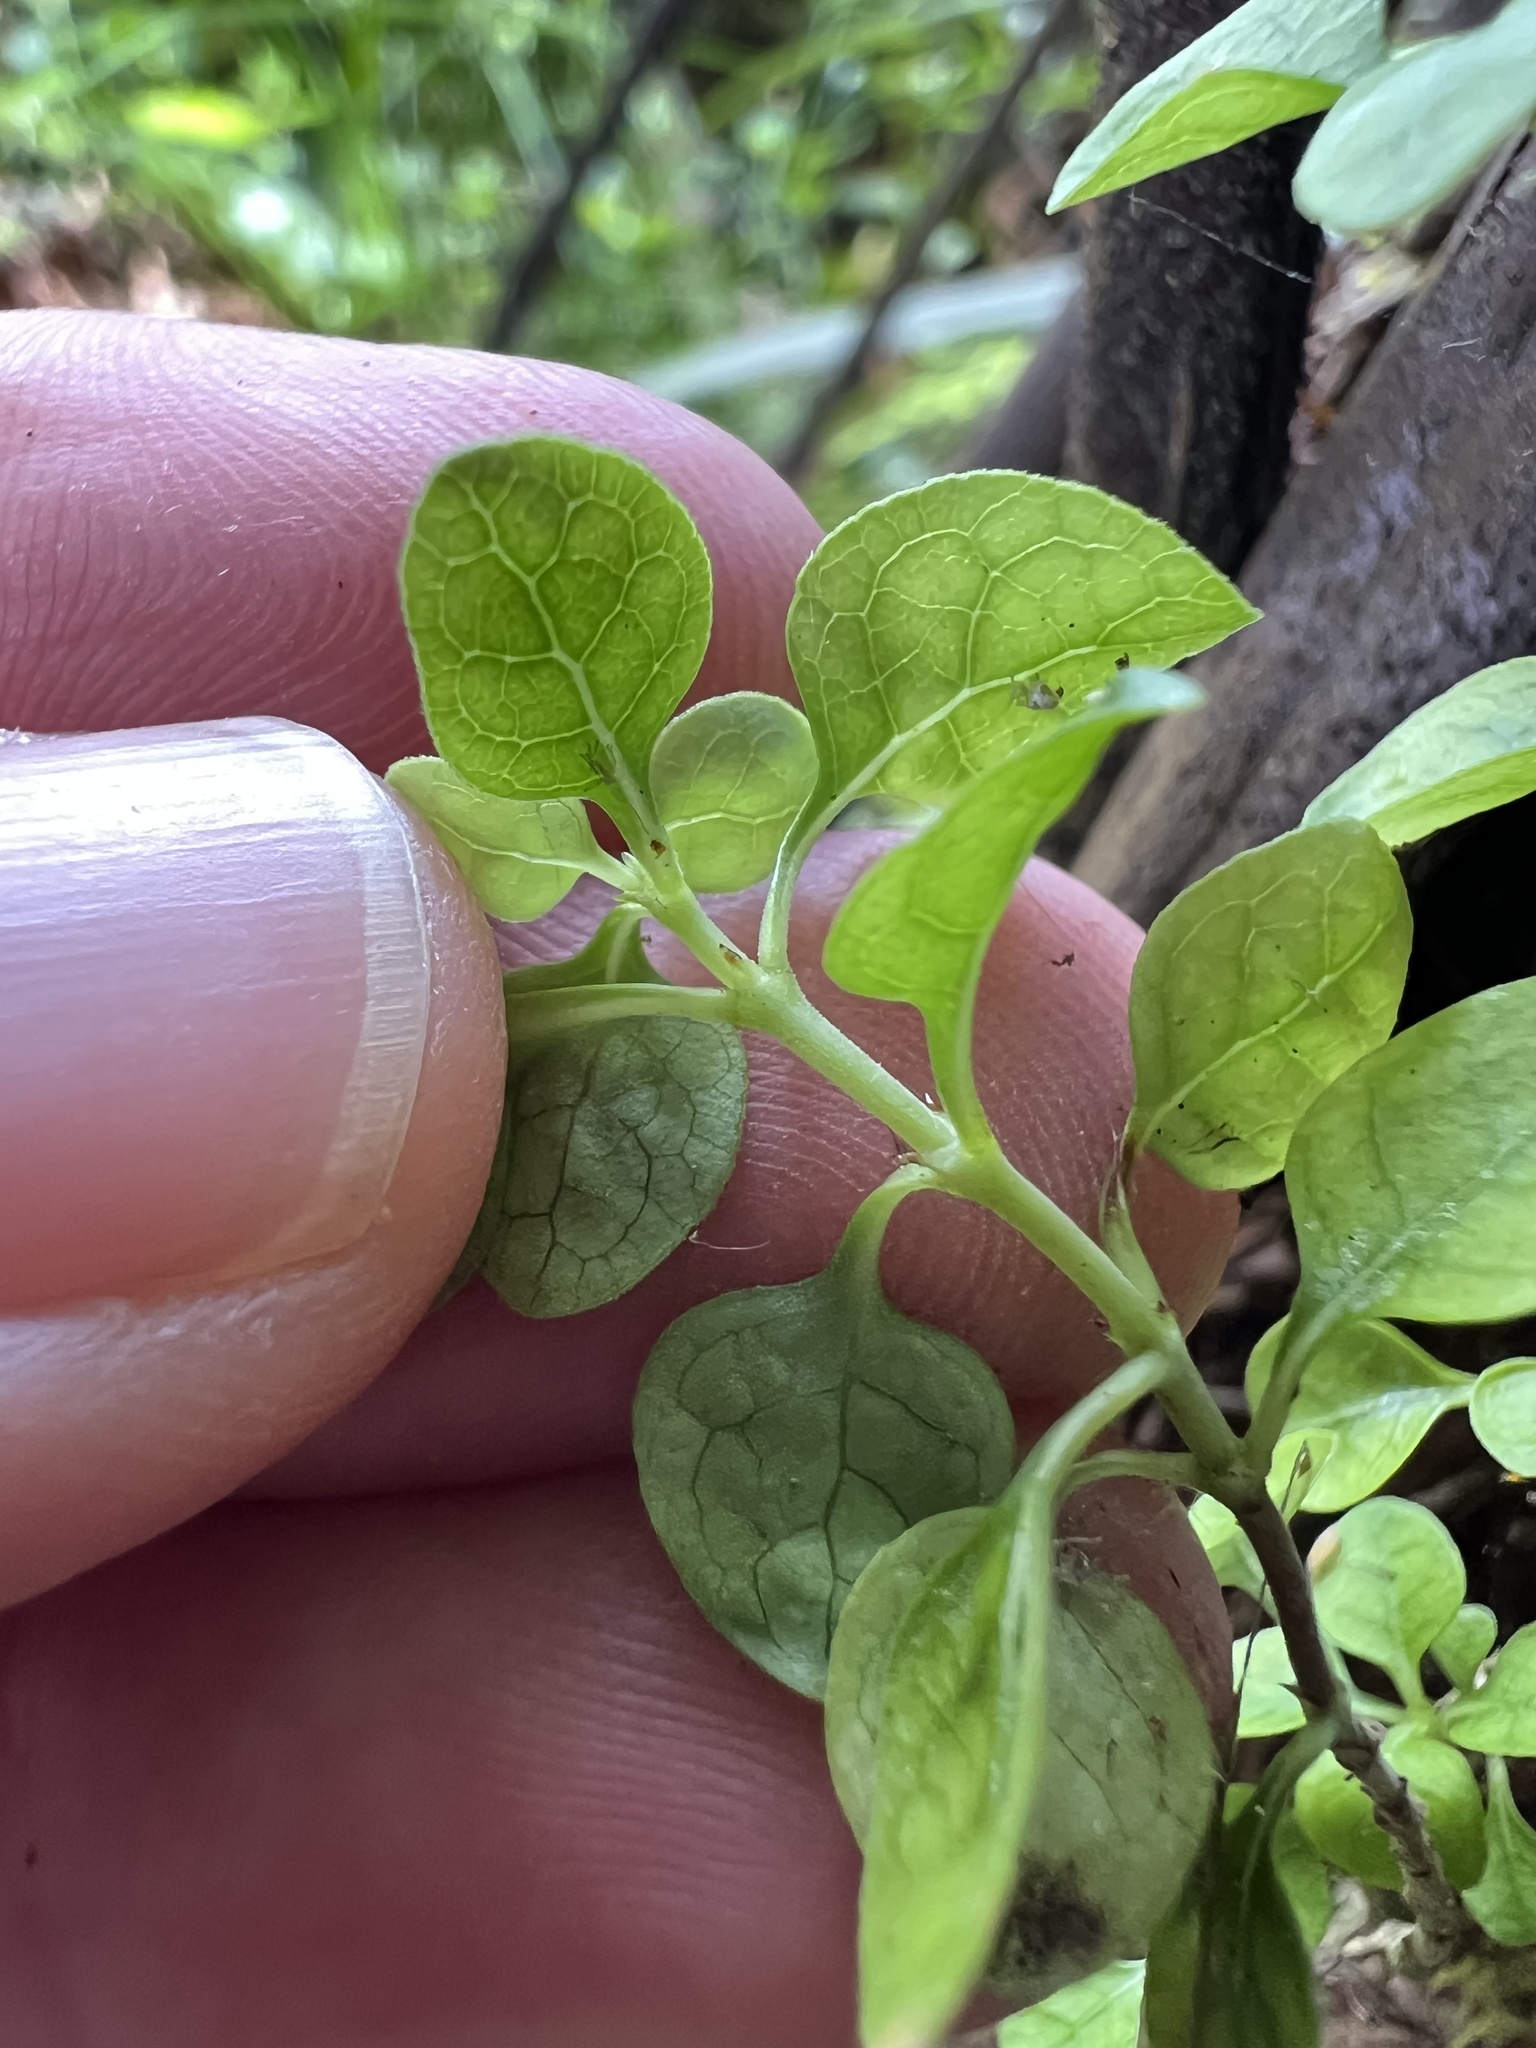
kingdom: Plantae
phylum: Tracheophyta
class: Magnoliopsida
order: Gentianales
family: Rubiaceae
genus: Coprosma
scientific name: Coprosma tenuicaulis
